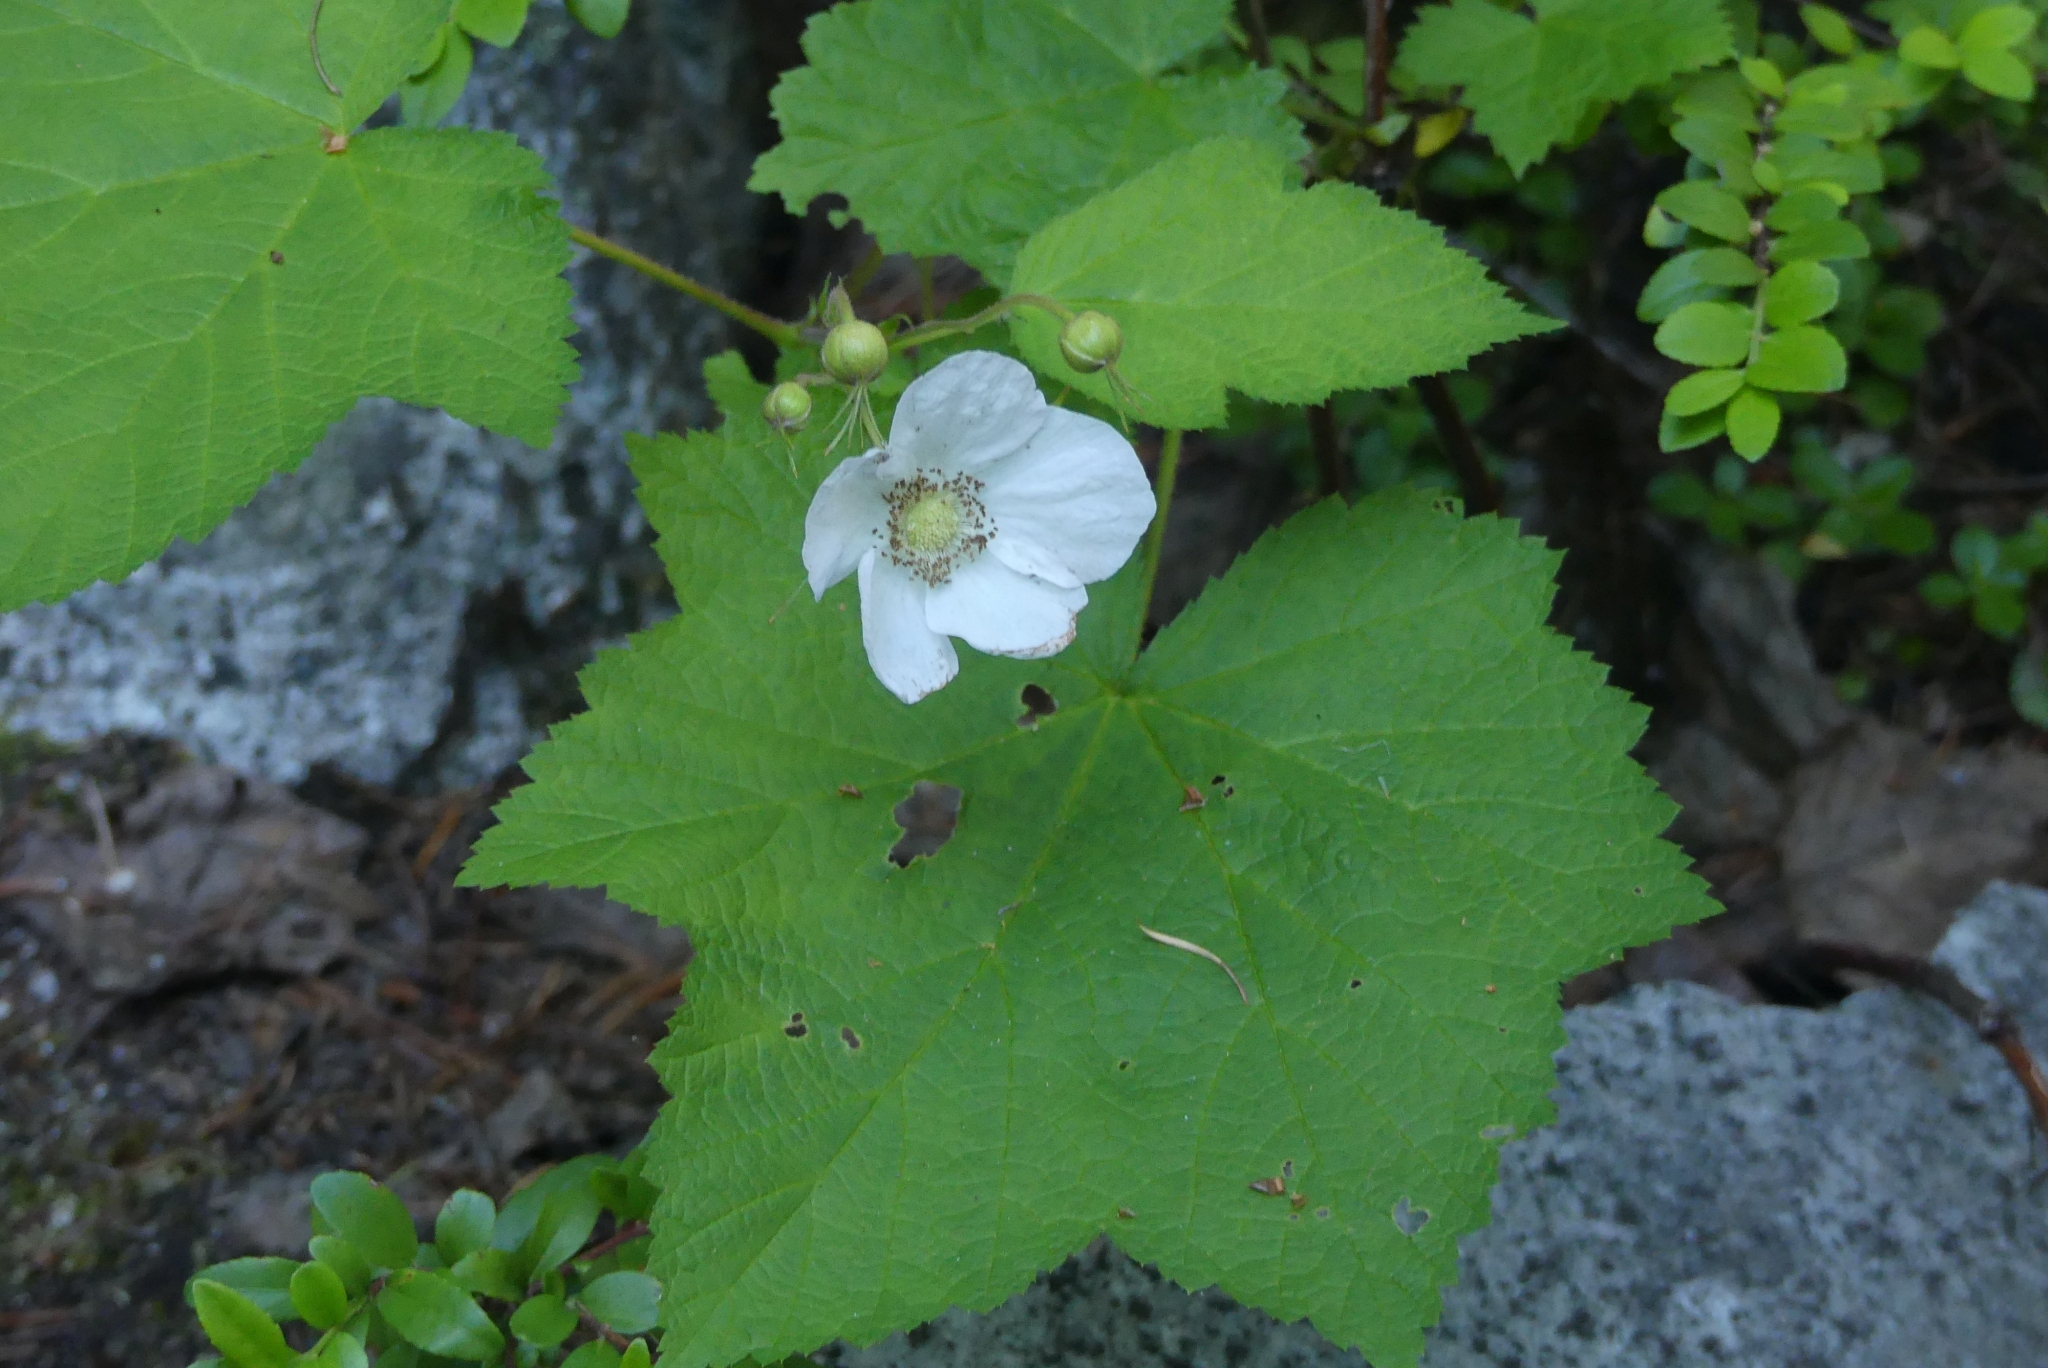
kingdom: Plantae
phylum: Tracheophyta
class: Magnoliopsida
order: Rosales
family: Rosaceae
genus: Rubus
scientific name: Rubus parviflorus
